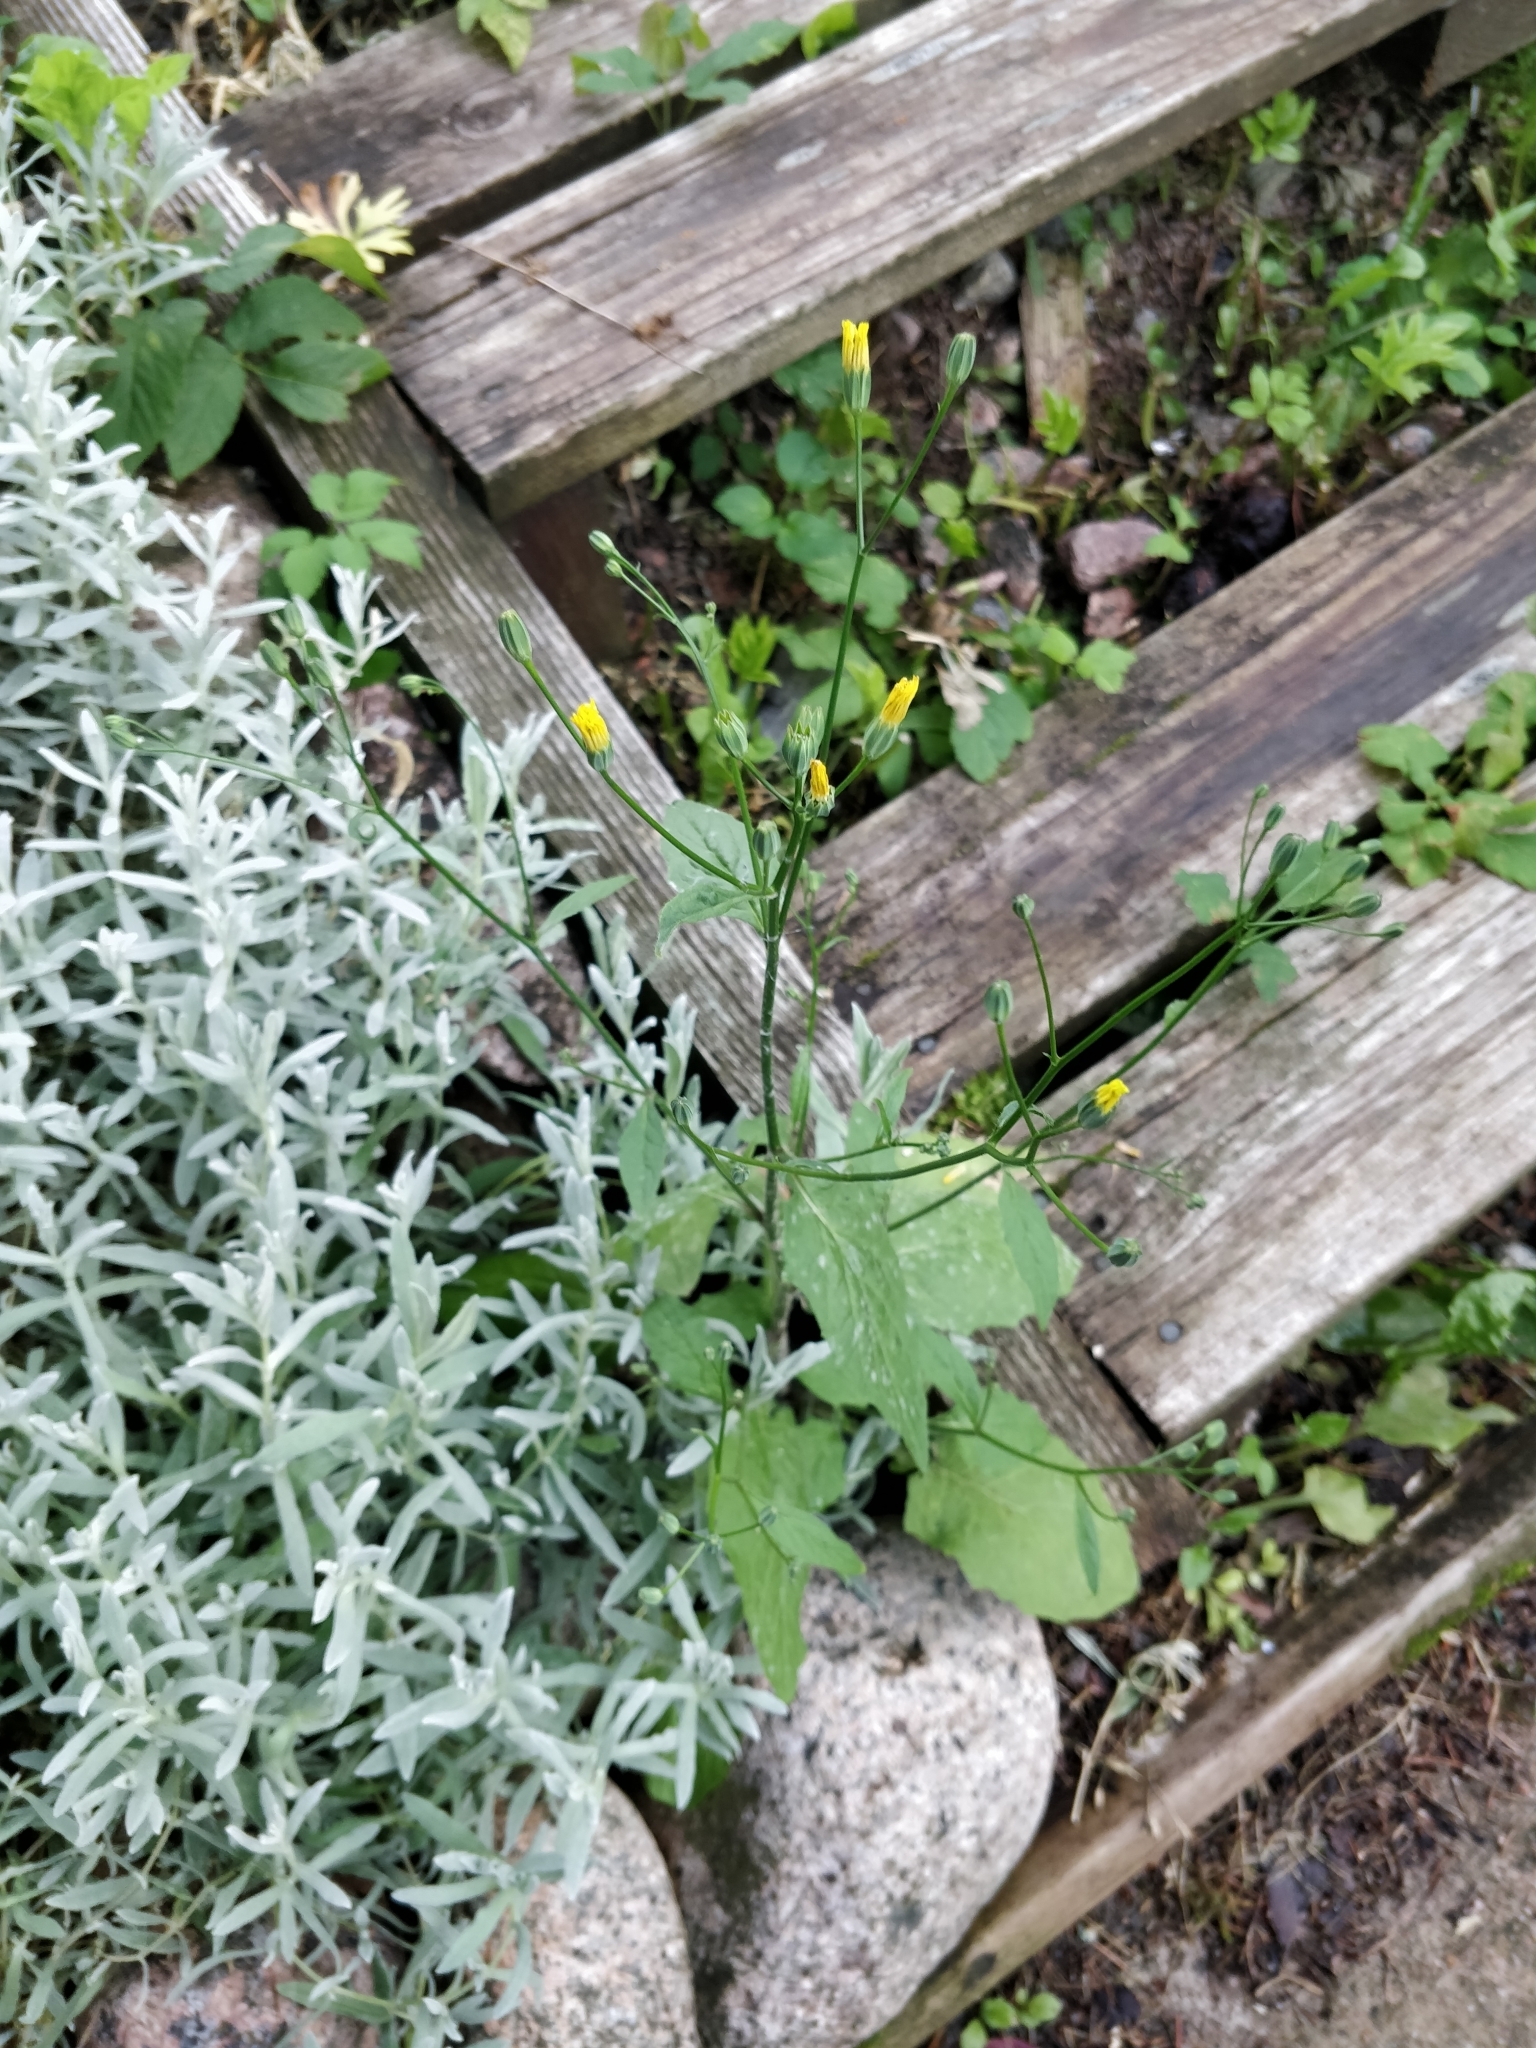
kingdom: Plantae
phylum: Tracheophyta
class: Magnoliopsida
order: Asterales
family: Asteraceae
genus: Lapsana
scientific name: Lapsana communis
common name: Nipplewort
